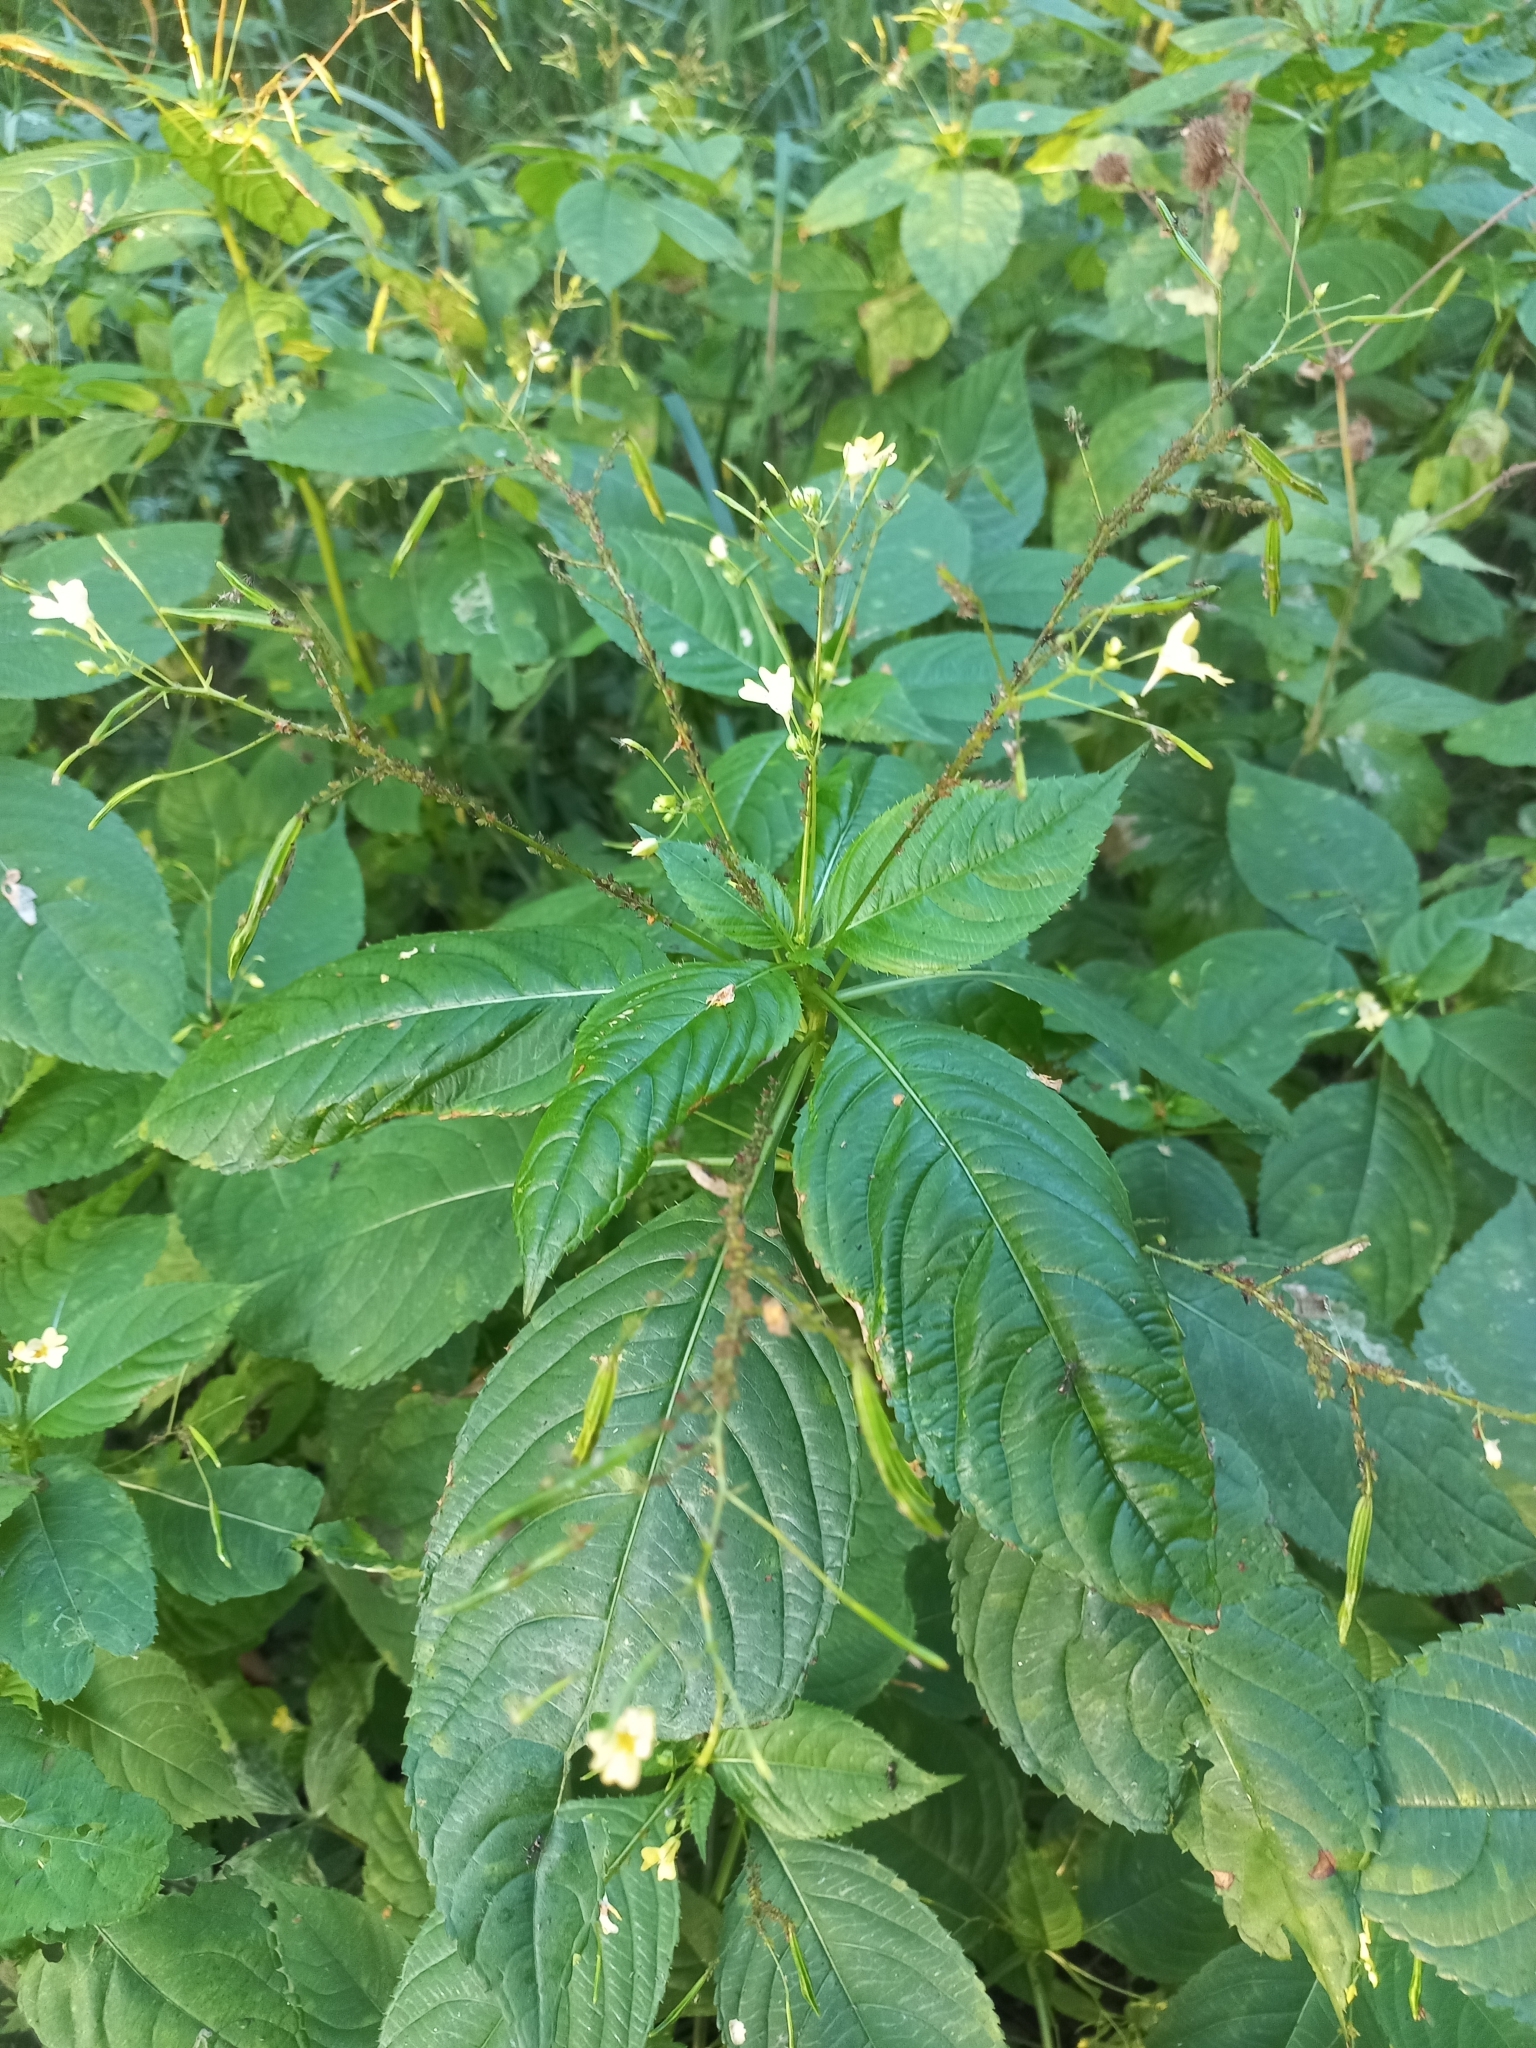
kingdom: Plantae
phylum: Tracheophyta
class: Magnoliopsida
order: Ericales
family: Balsaminaceae
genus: Impatiens
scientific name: Impatiens parviflora
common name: Small balsam
